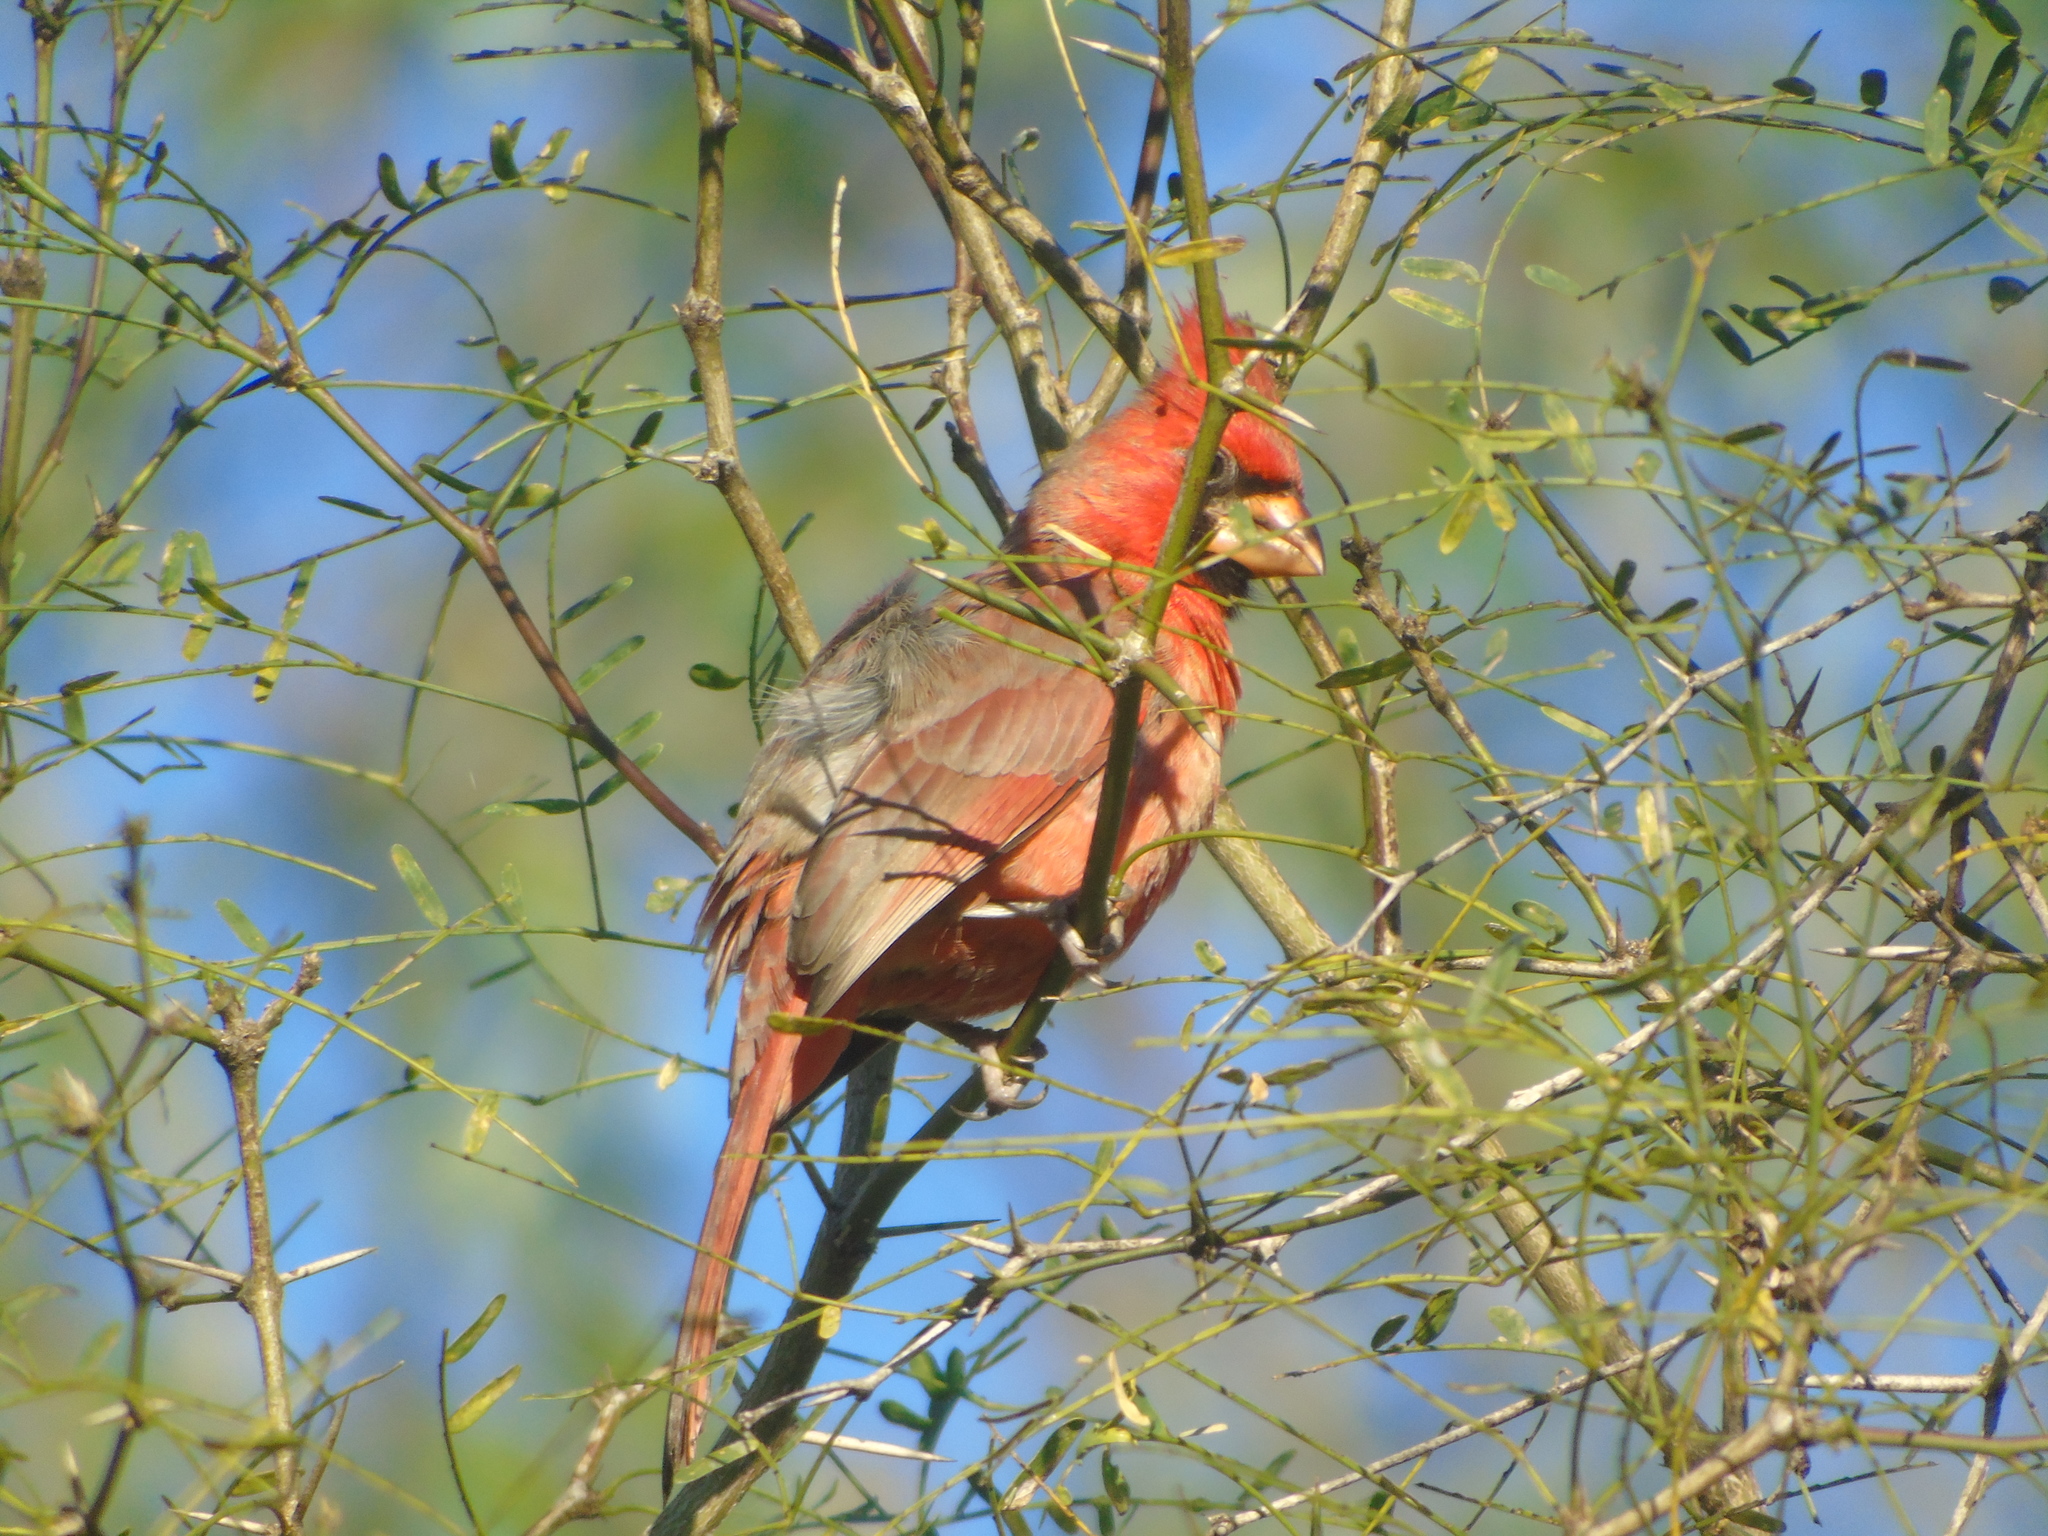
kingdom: Animalia
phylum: Chordata
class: Aves
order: Passeriformes
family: Cardinalidae
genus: Cardinalis
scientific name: Cardinalis cardinalis
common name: Northern cardinal
